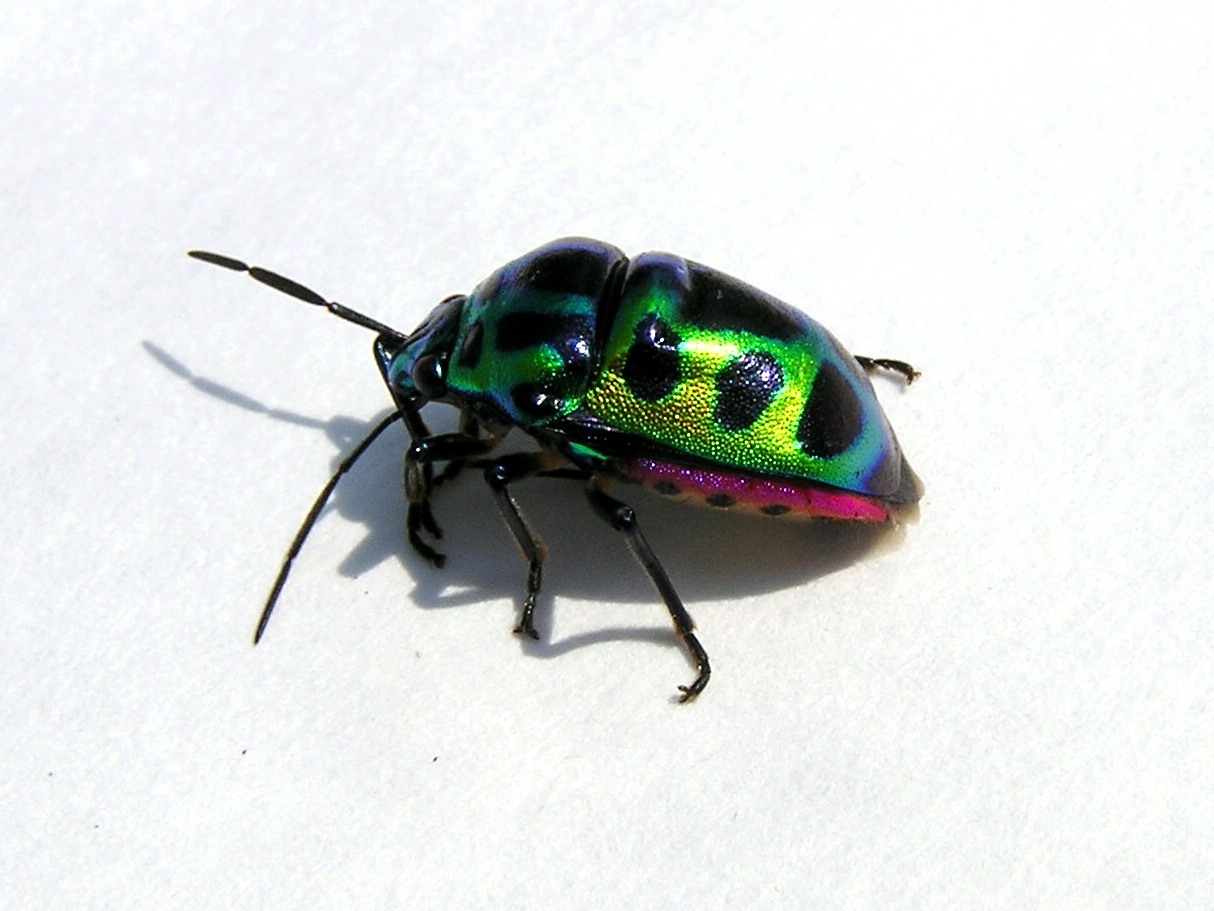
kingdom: Animalia
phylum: Arthropoda
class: Insecta
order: Hemiptera
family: Scutelleridae
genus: Chrysocoris
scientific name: Chrysocoris stollii
